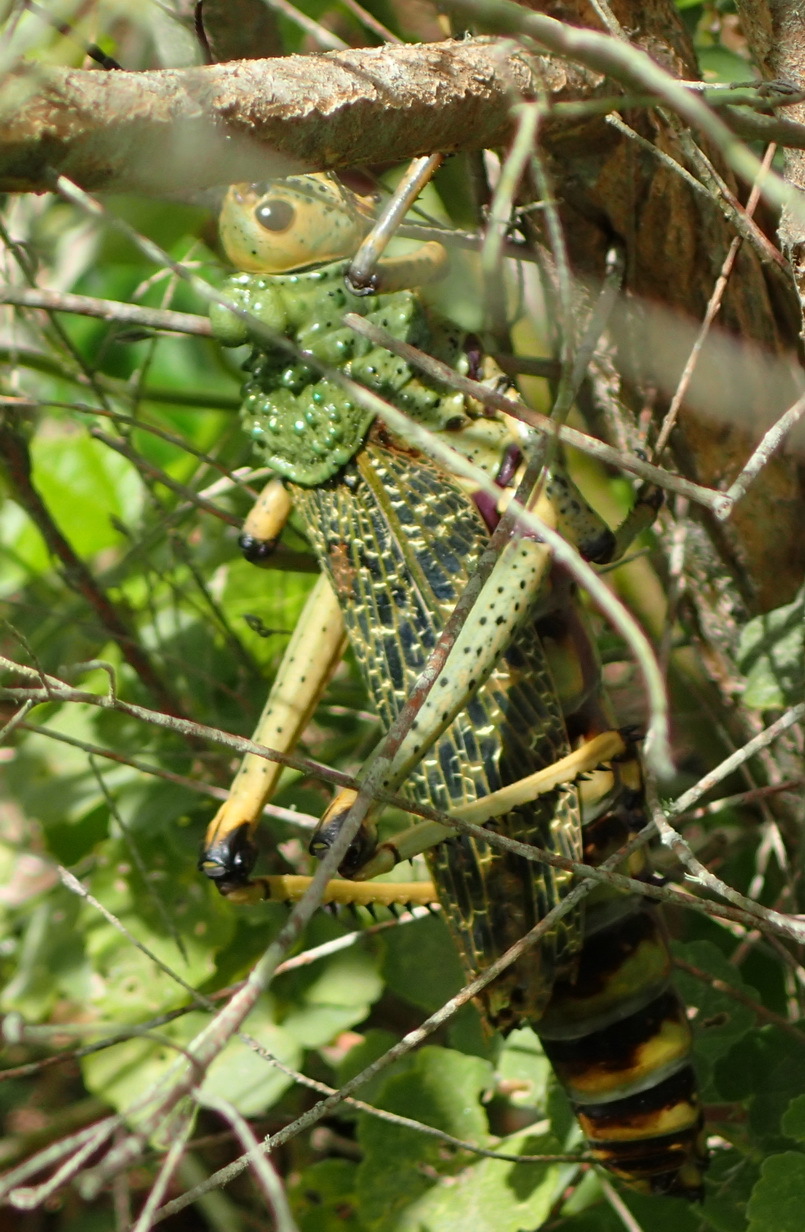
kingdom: Animalia
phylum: Arthropoda
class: Insecta
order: Orthoptera
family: Pyrgomorphidae
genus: Phymateus
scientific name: Phymateus leprosus
